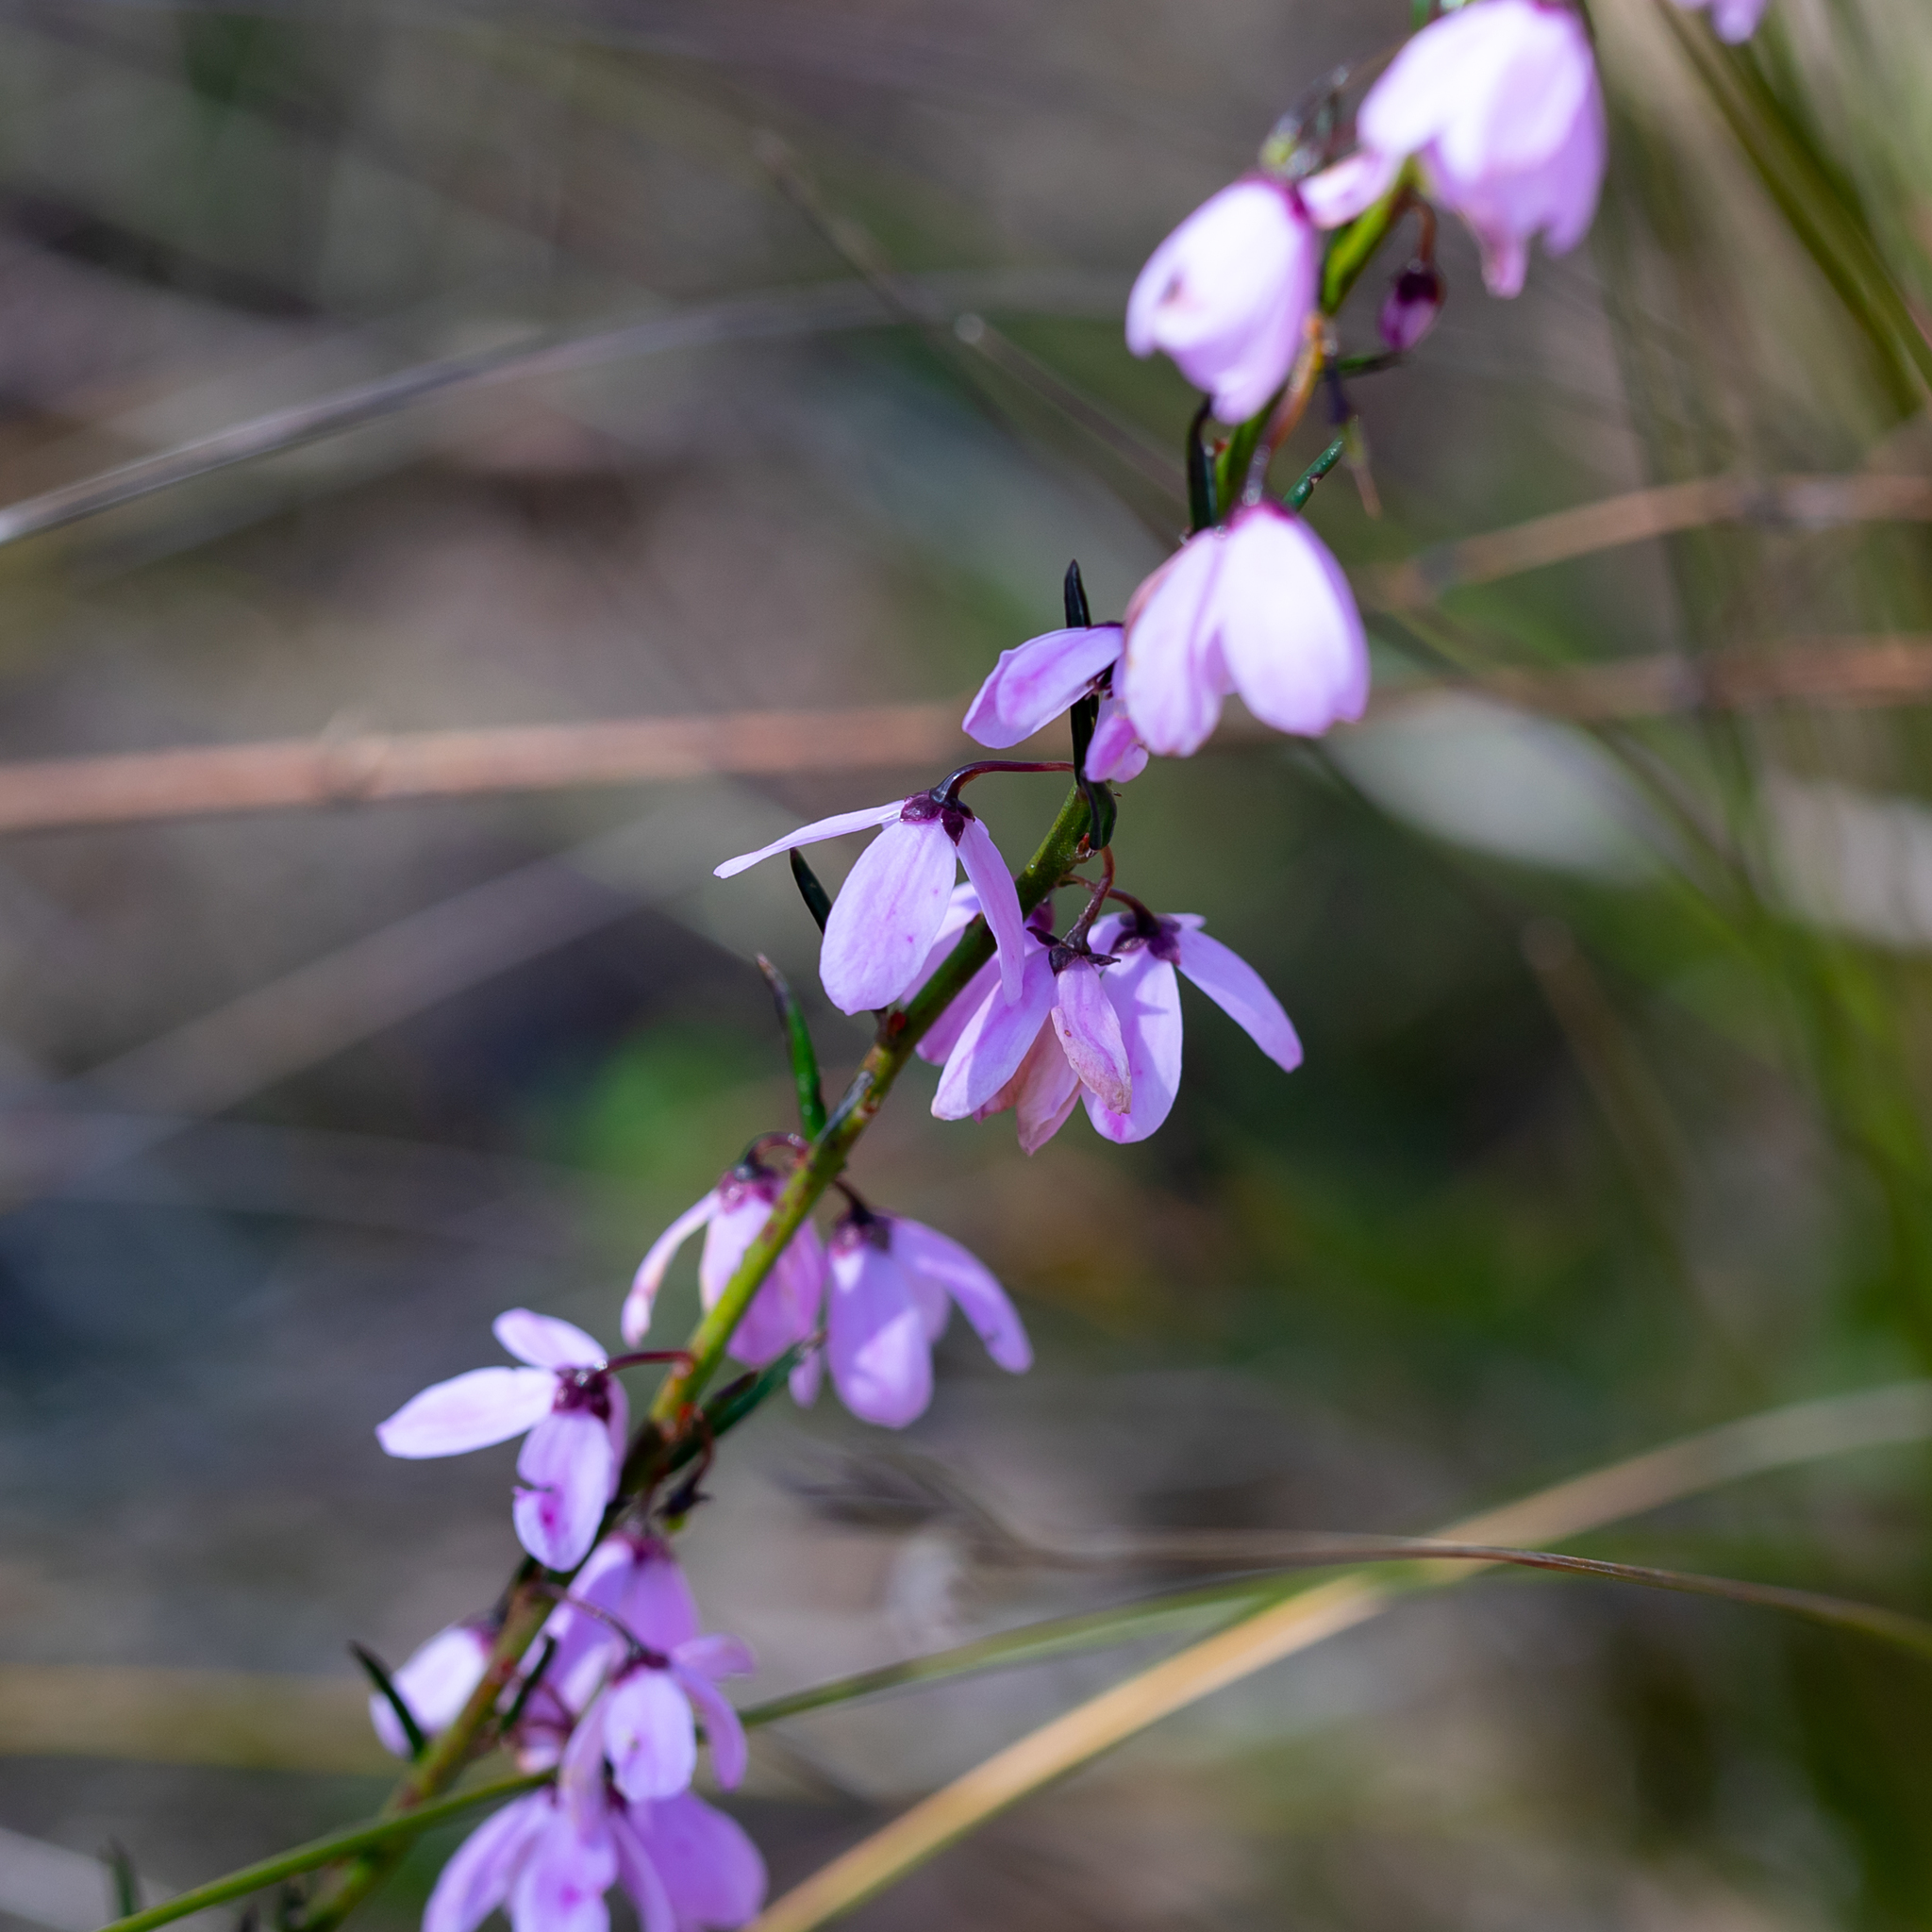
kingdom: Plantae
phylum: Tracheophyta
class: Magnoliopsida
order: Oxalidales
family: Elaeocarpaceae
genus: Tetratheca
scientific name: Tetratheca pilosa
